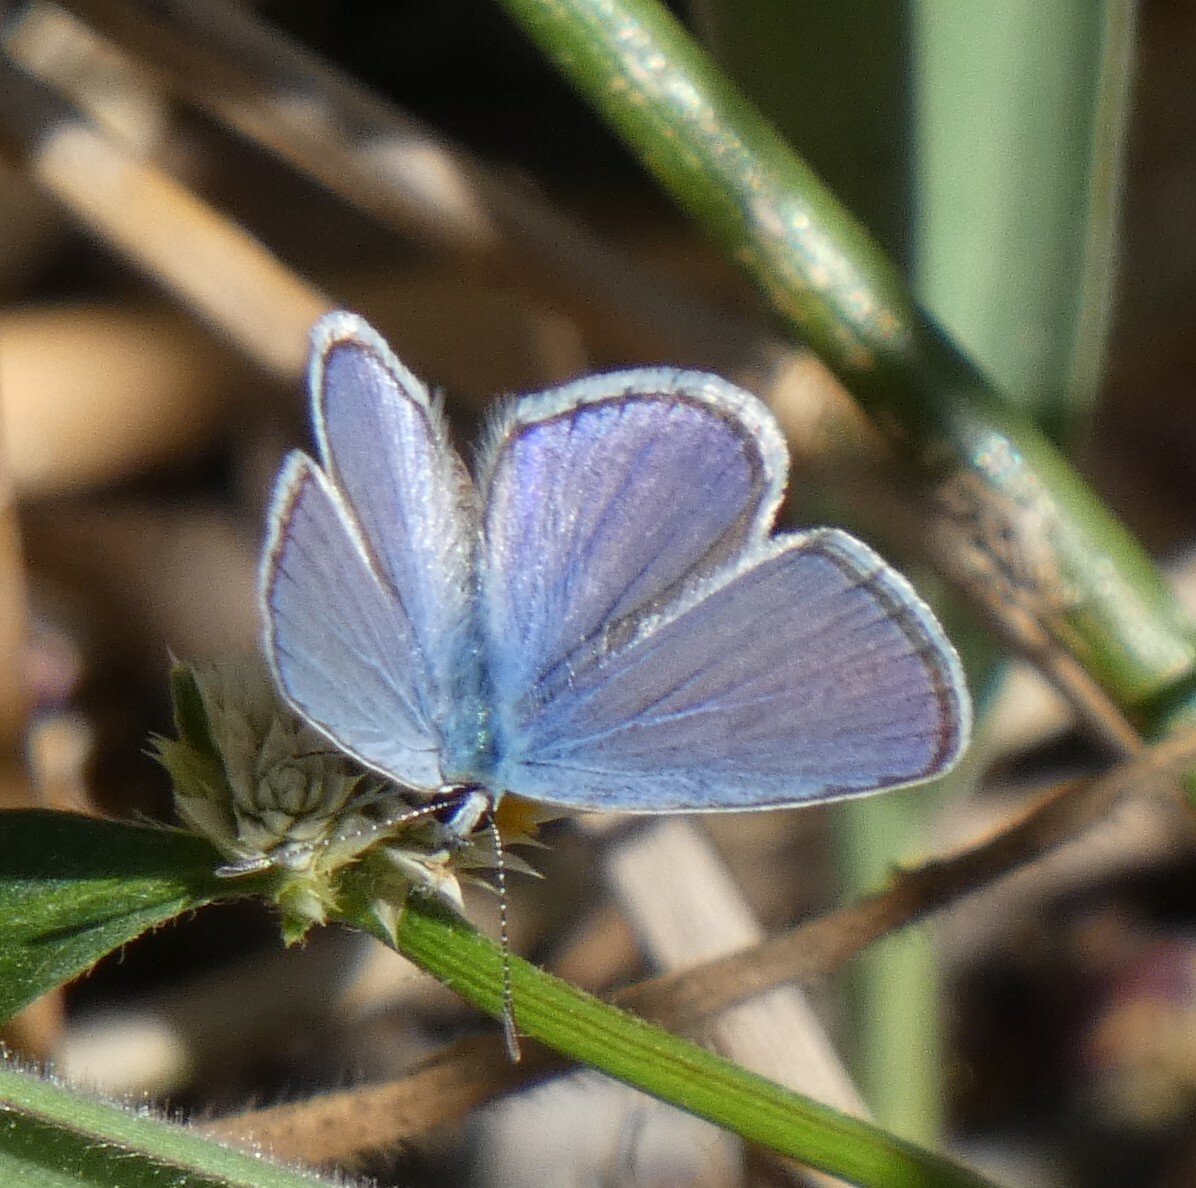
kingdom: Animalia
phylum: Arthropoda
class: Insecta
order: Lepidoptera
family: Lycaenidae
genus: Hemiargus
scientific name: Hemiargus hanno
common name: Common blue
